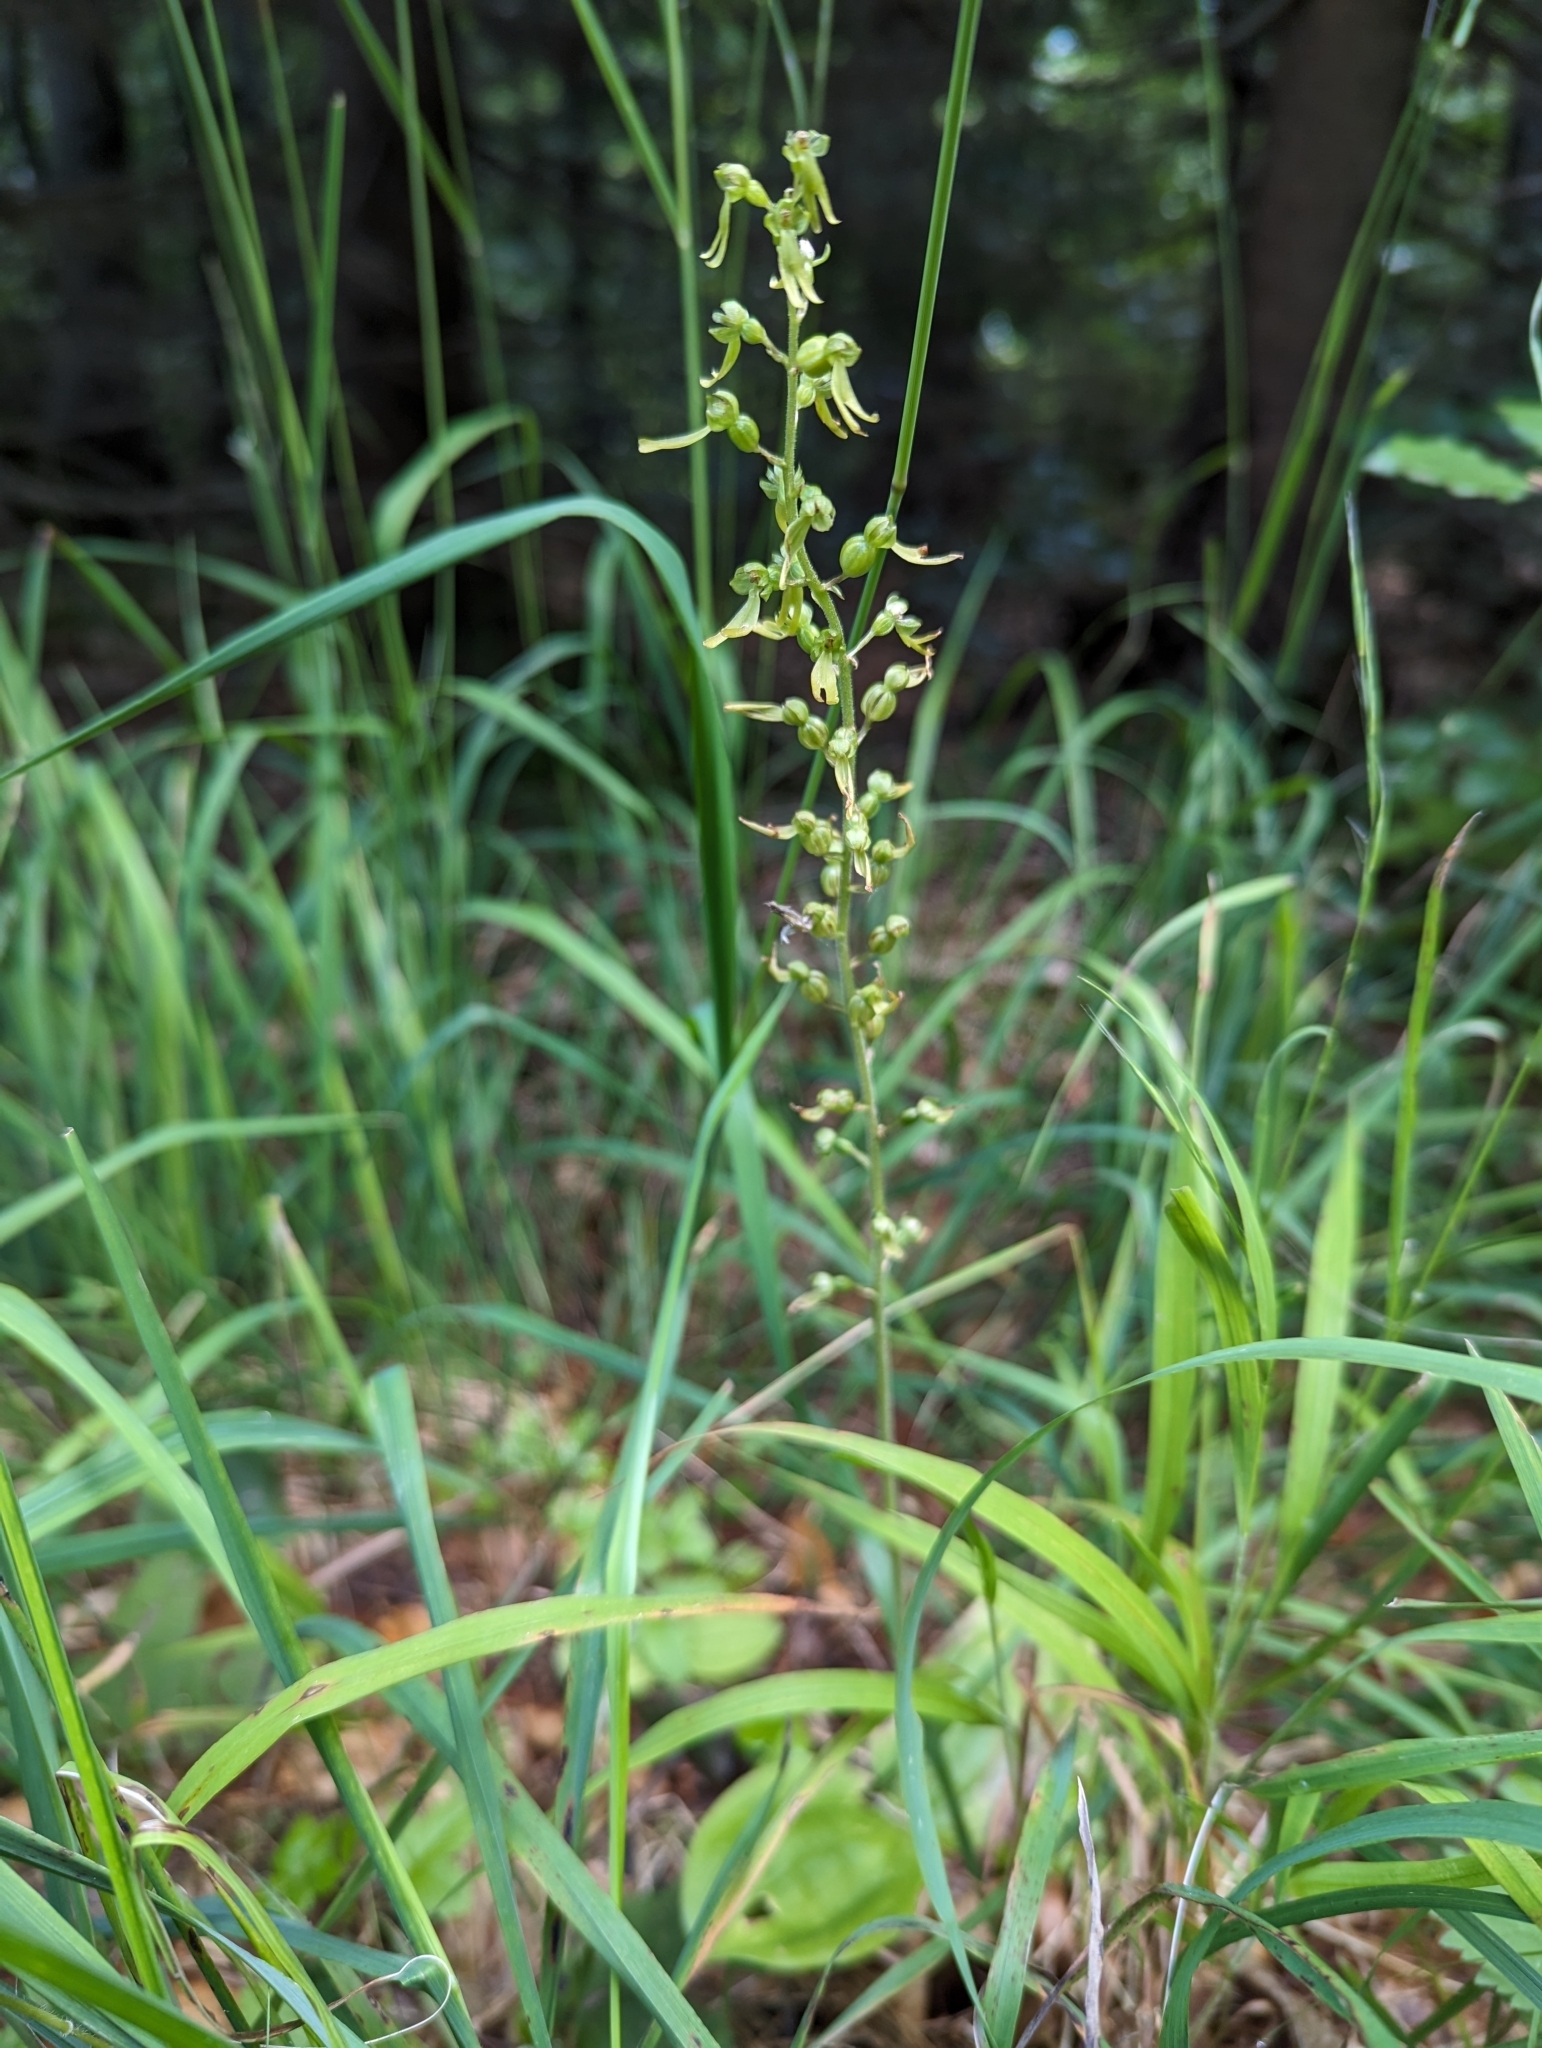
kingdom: Plantae
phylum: Tracheophyta
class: Liliopsida
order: Asparagales
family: Orchidaceae
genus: Neottia
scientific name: Neottia ovata
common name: Common twayblade
